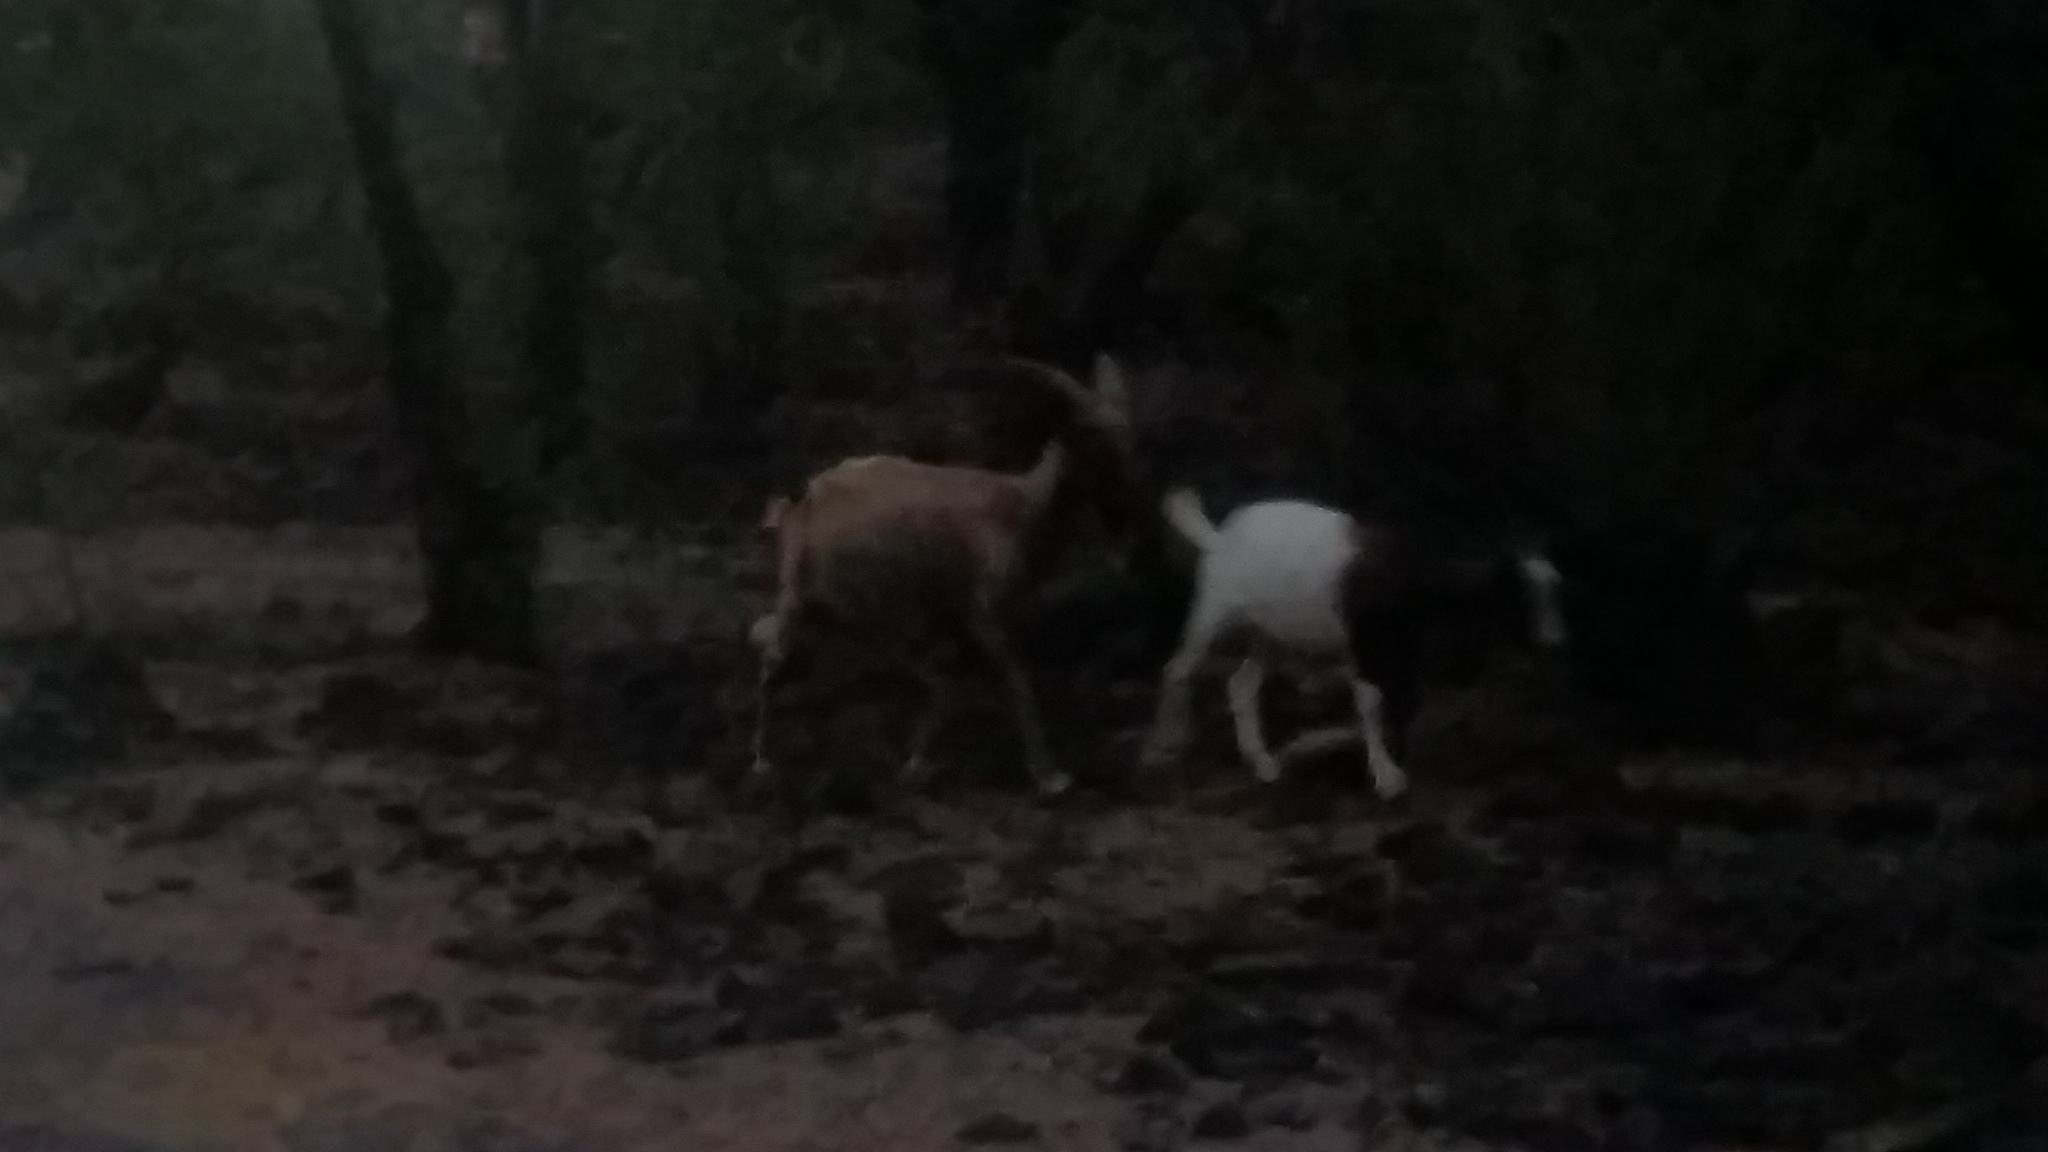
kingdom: Animalia
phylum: Chordata
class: Mammalia
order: Artiodactyla
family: Bovidae
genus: Capra
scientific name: Capra hircus
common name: Domestic goat
